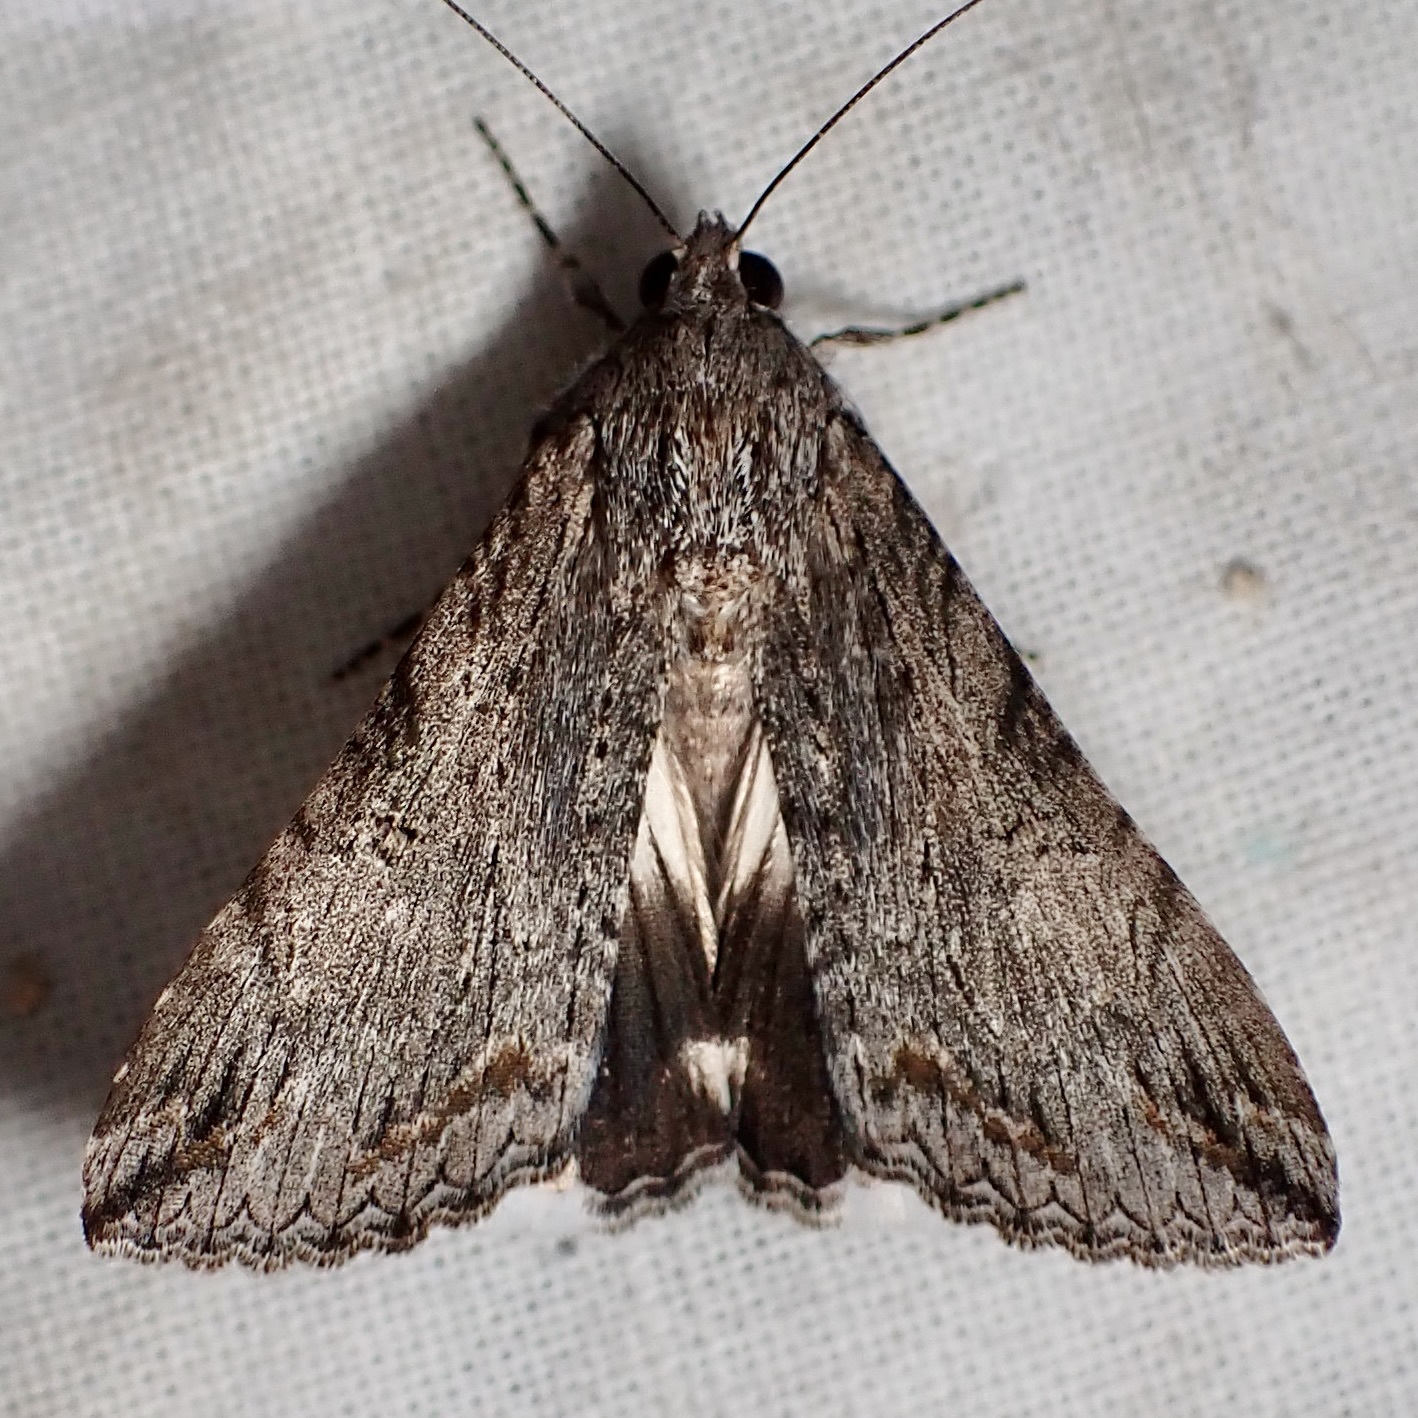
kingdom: Animalia
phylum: Arthropoda
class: Insecta
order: Lepidoptera
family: Erebidae
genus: Melipotis
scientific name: Melipotis jucunda
